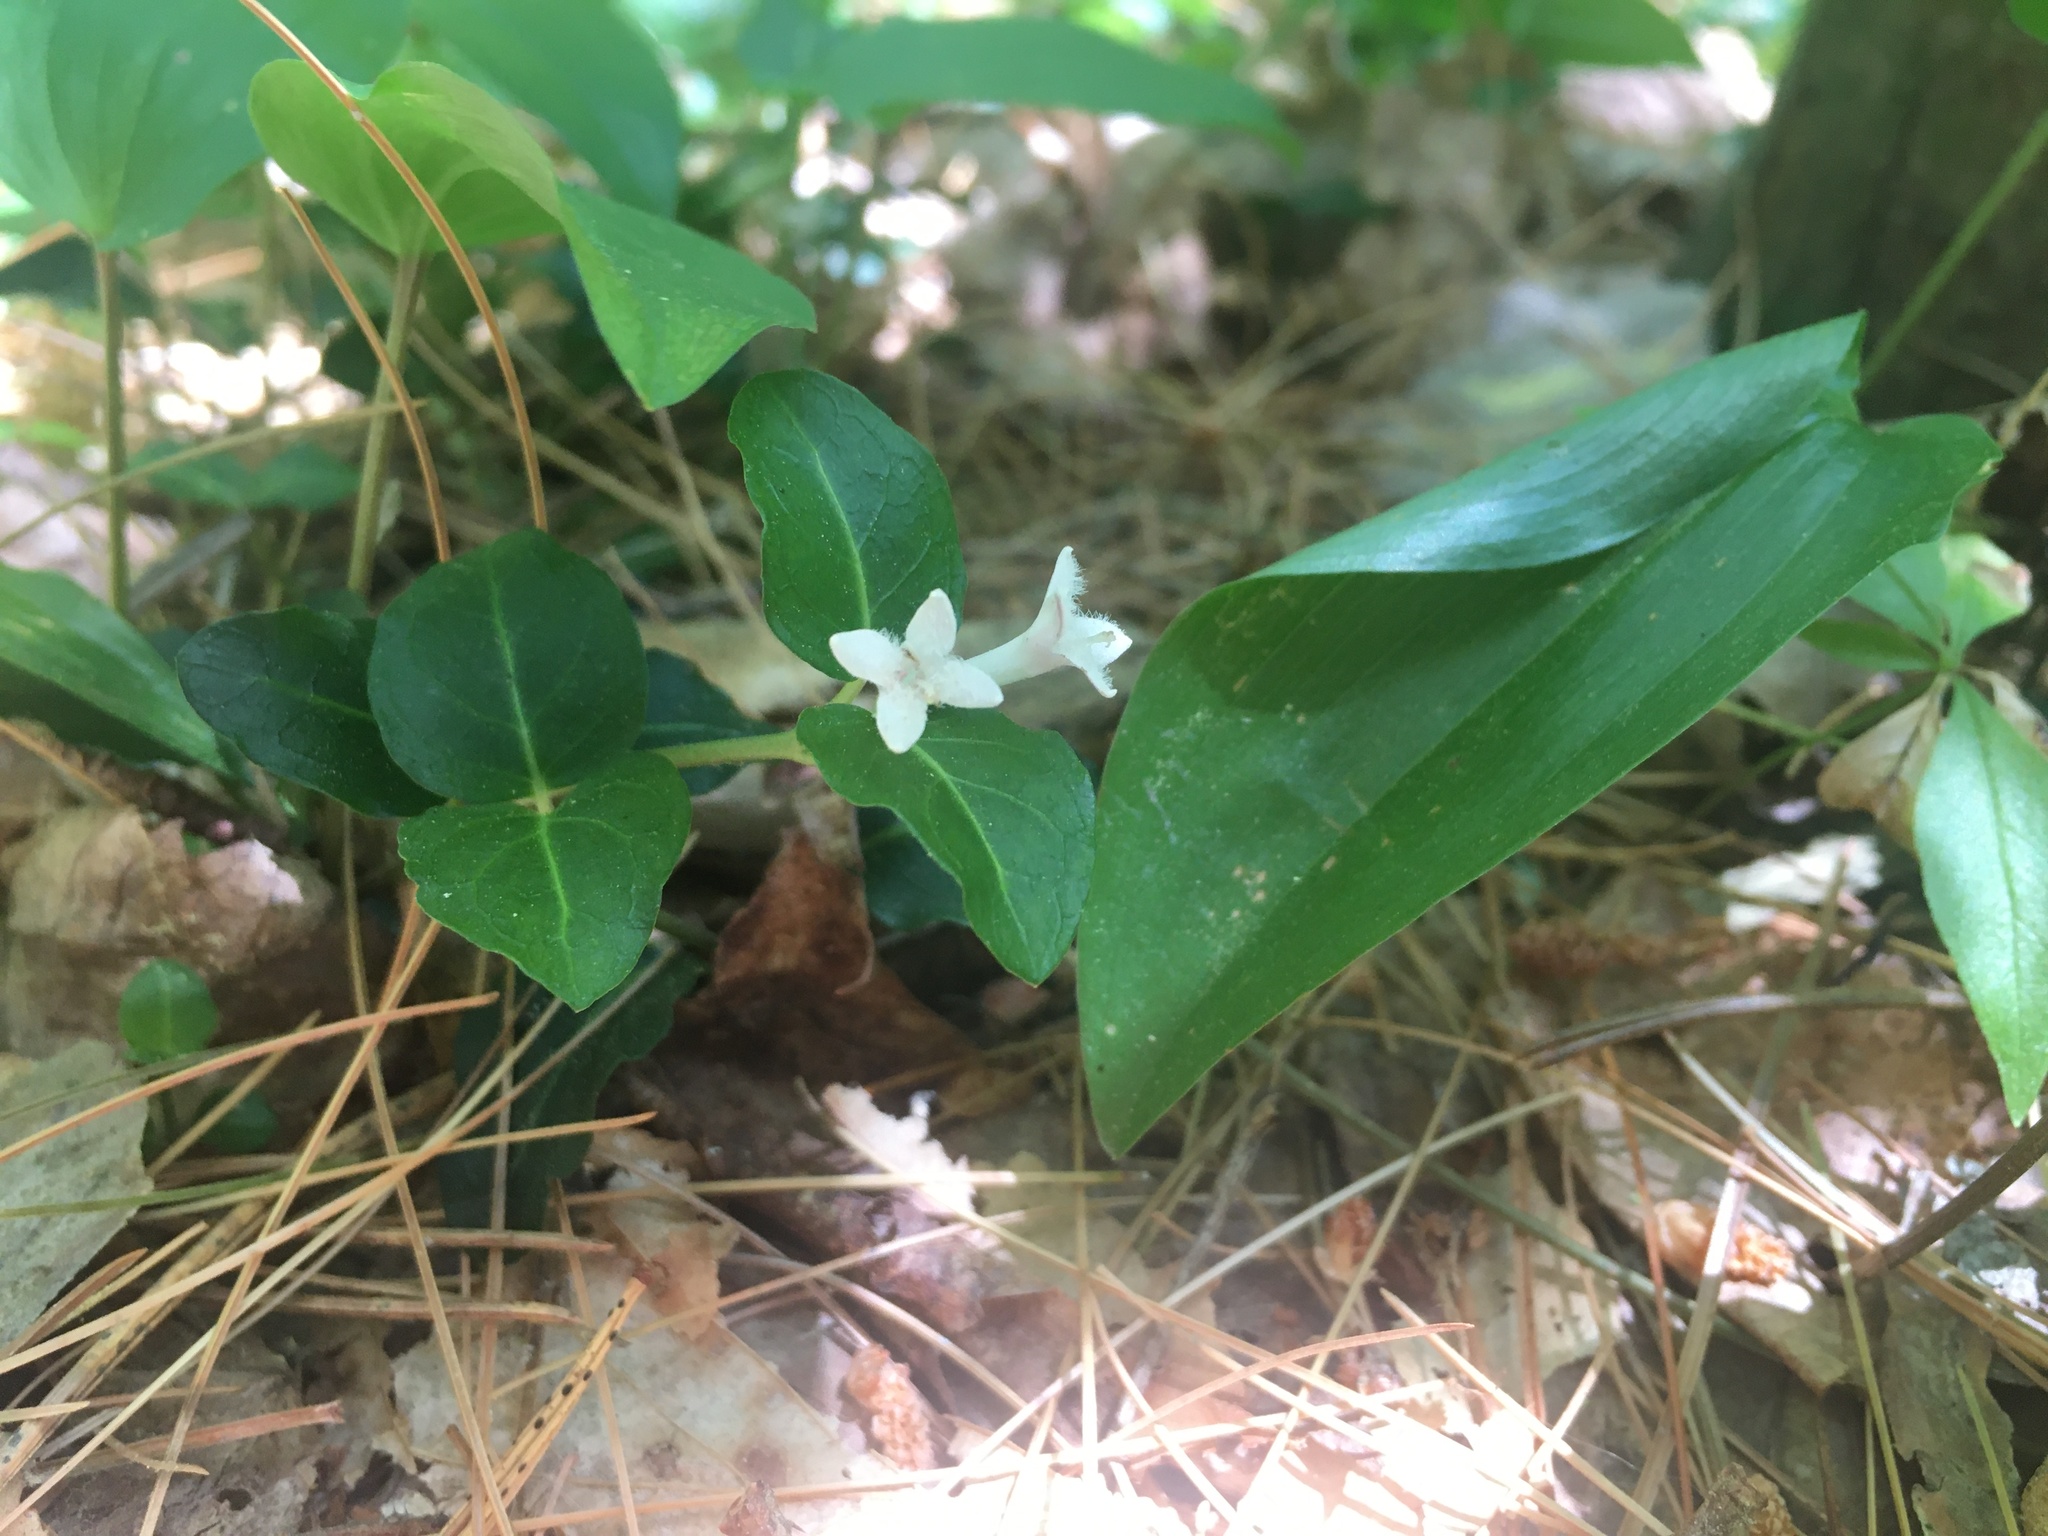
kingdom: Plantae
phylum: Tracheophyta
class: Magnoliopsida
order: Gentianales
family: Rubiaceae
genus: Mitchella
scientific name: Mitchella repens
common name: Partridge-berry
